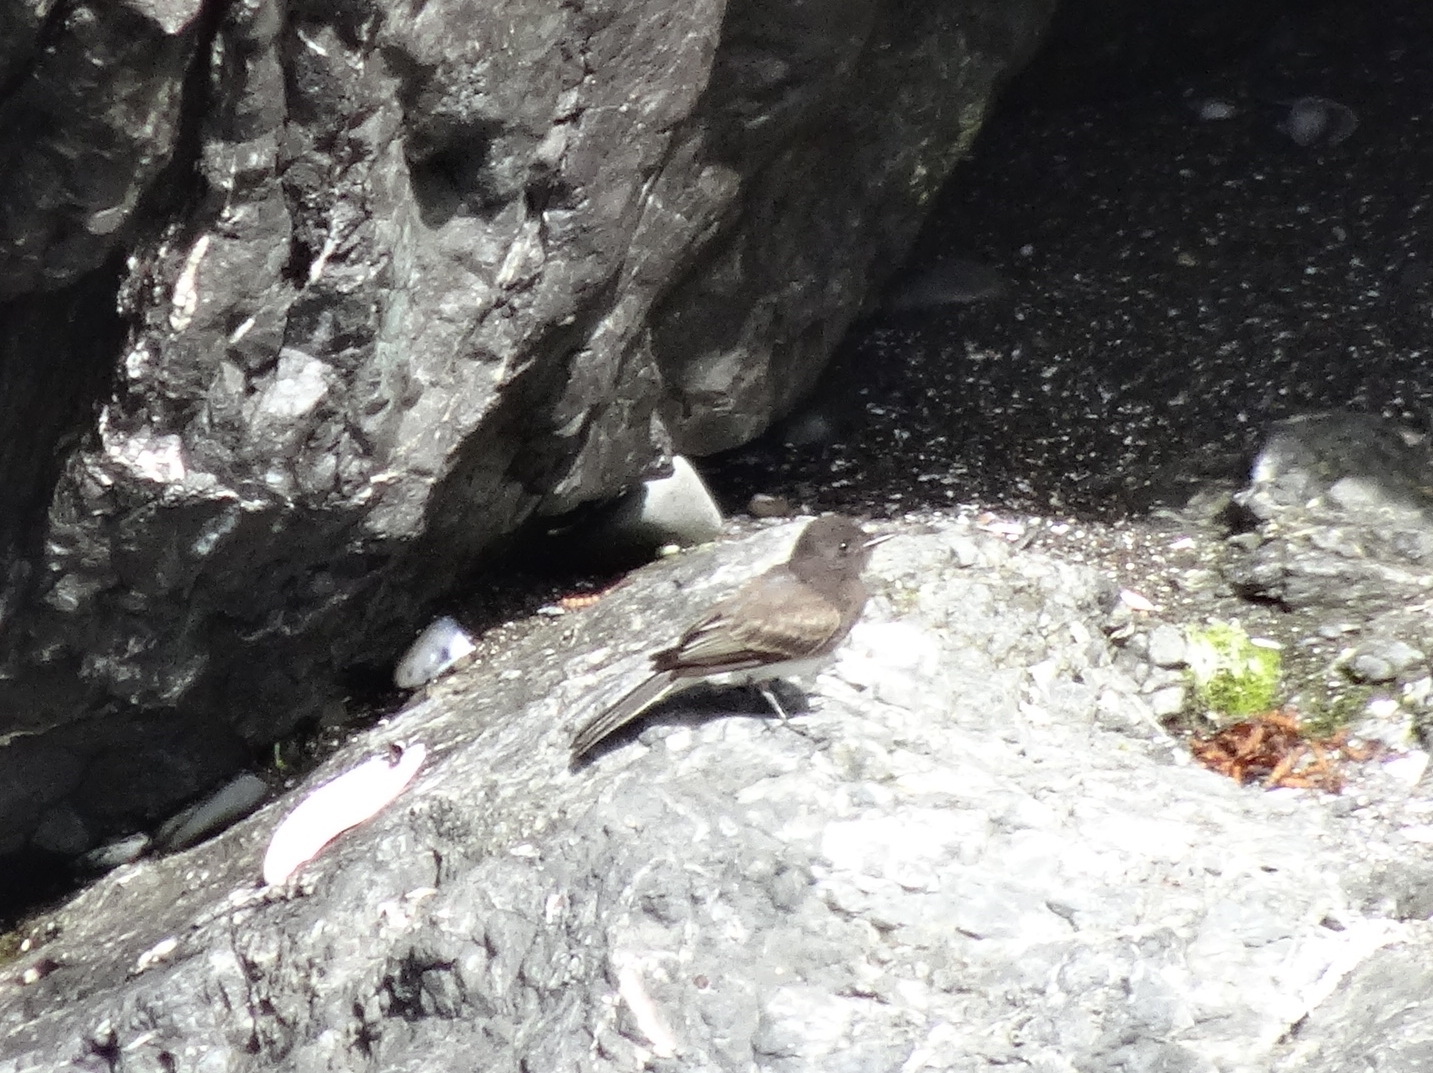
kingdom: Animalia
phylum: Chordata
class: Aves
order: Passeriformes
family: Tyrannidae
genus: Sayornis
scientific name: Sayornis nigricans
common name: Black phoebe
